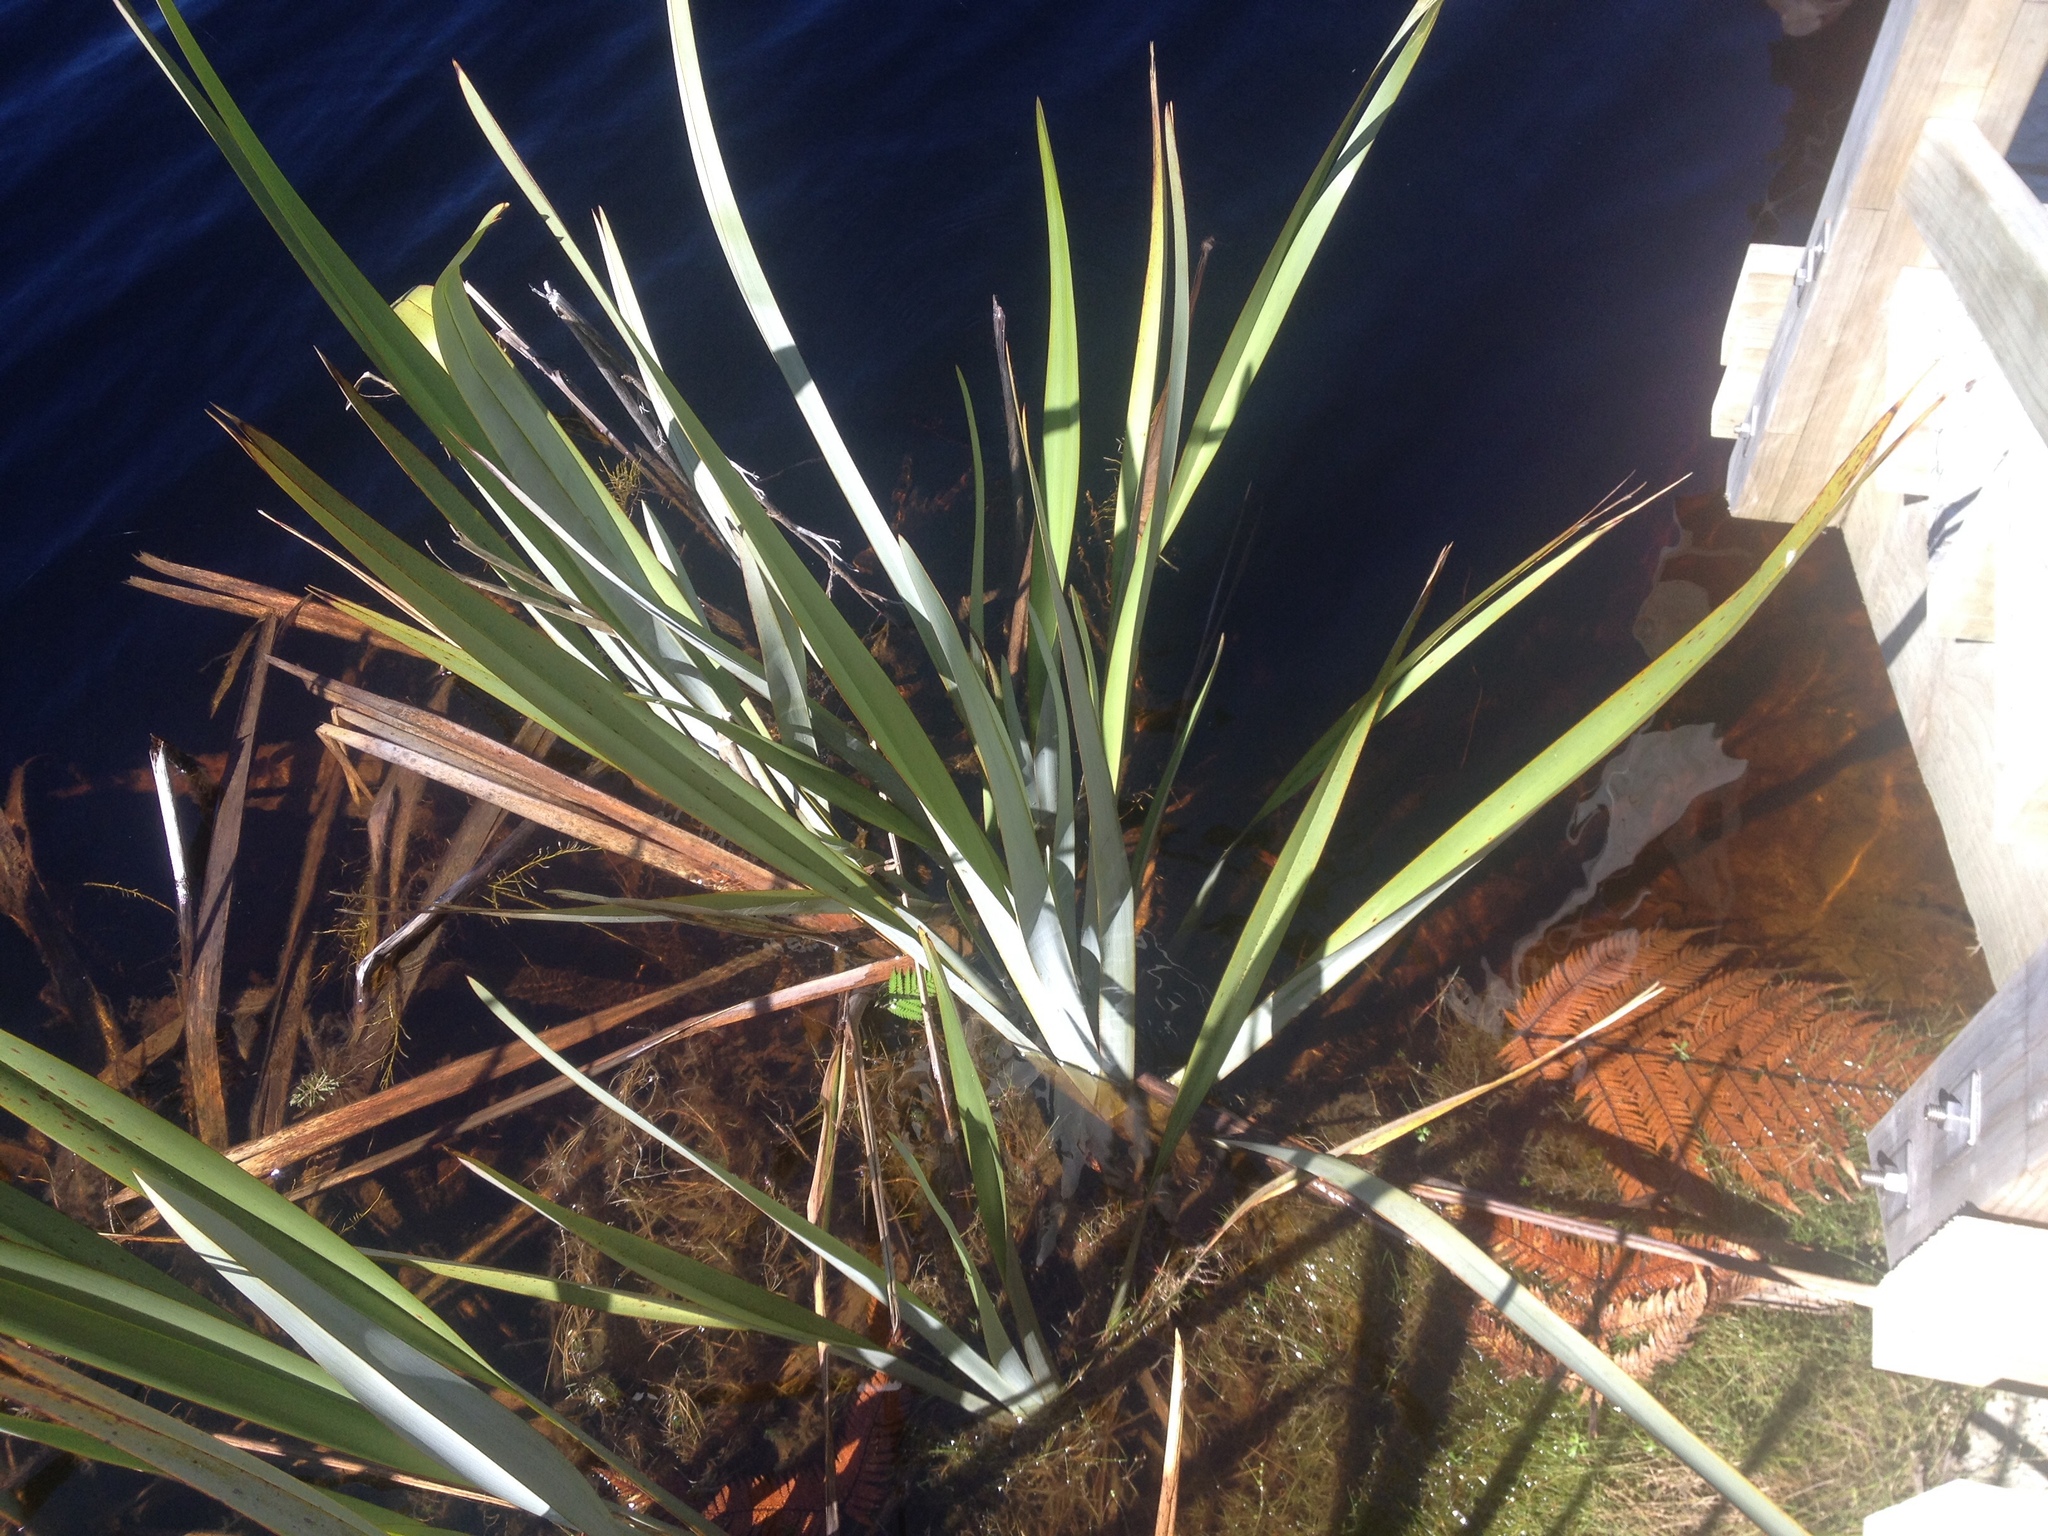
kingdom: Plantae
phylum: Tracheophyta
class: Liliopsida
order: Asparagales
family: Asphodelaceae
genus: Phormium
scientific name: Phormium tenax
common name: New zealand flax
